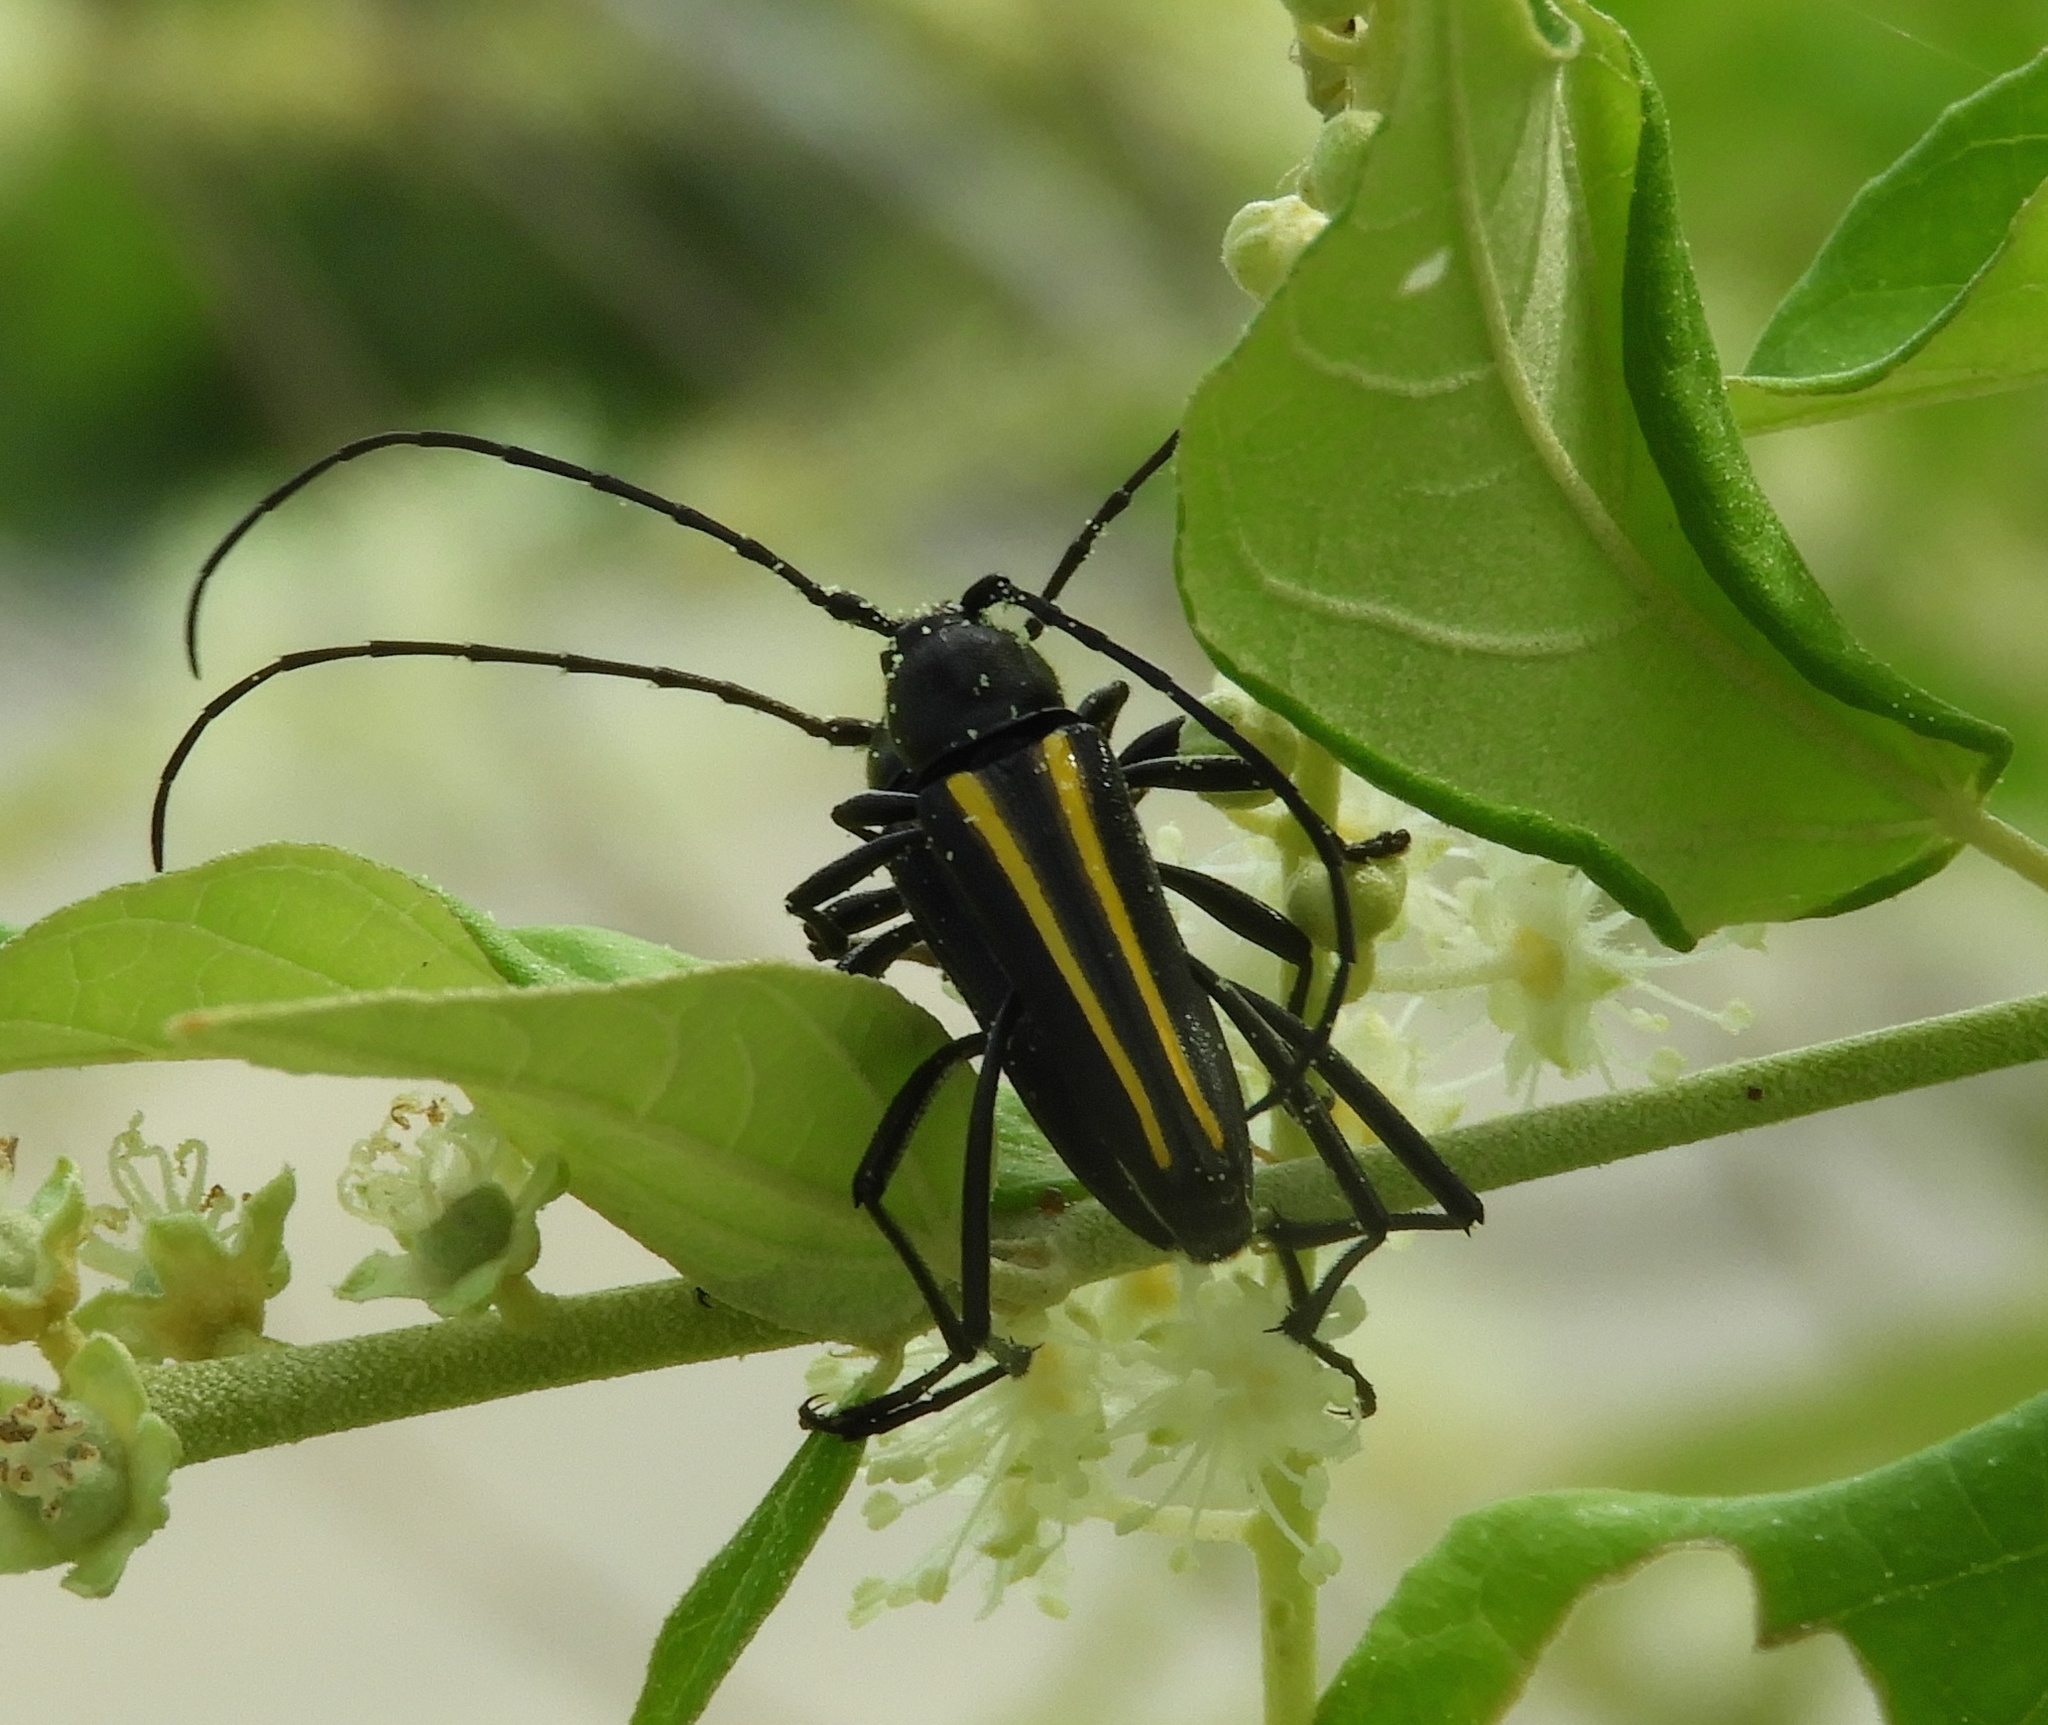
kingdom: Animalia
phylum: Arthropoda
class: Insecta
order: Coleoptera
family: Cerambycidae
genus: Lophalia
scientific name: Lophalia prolata
